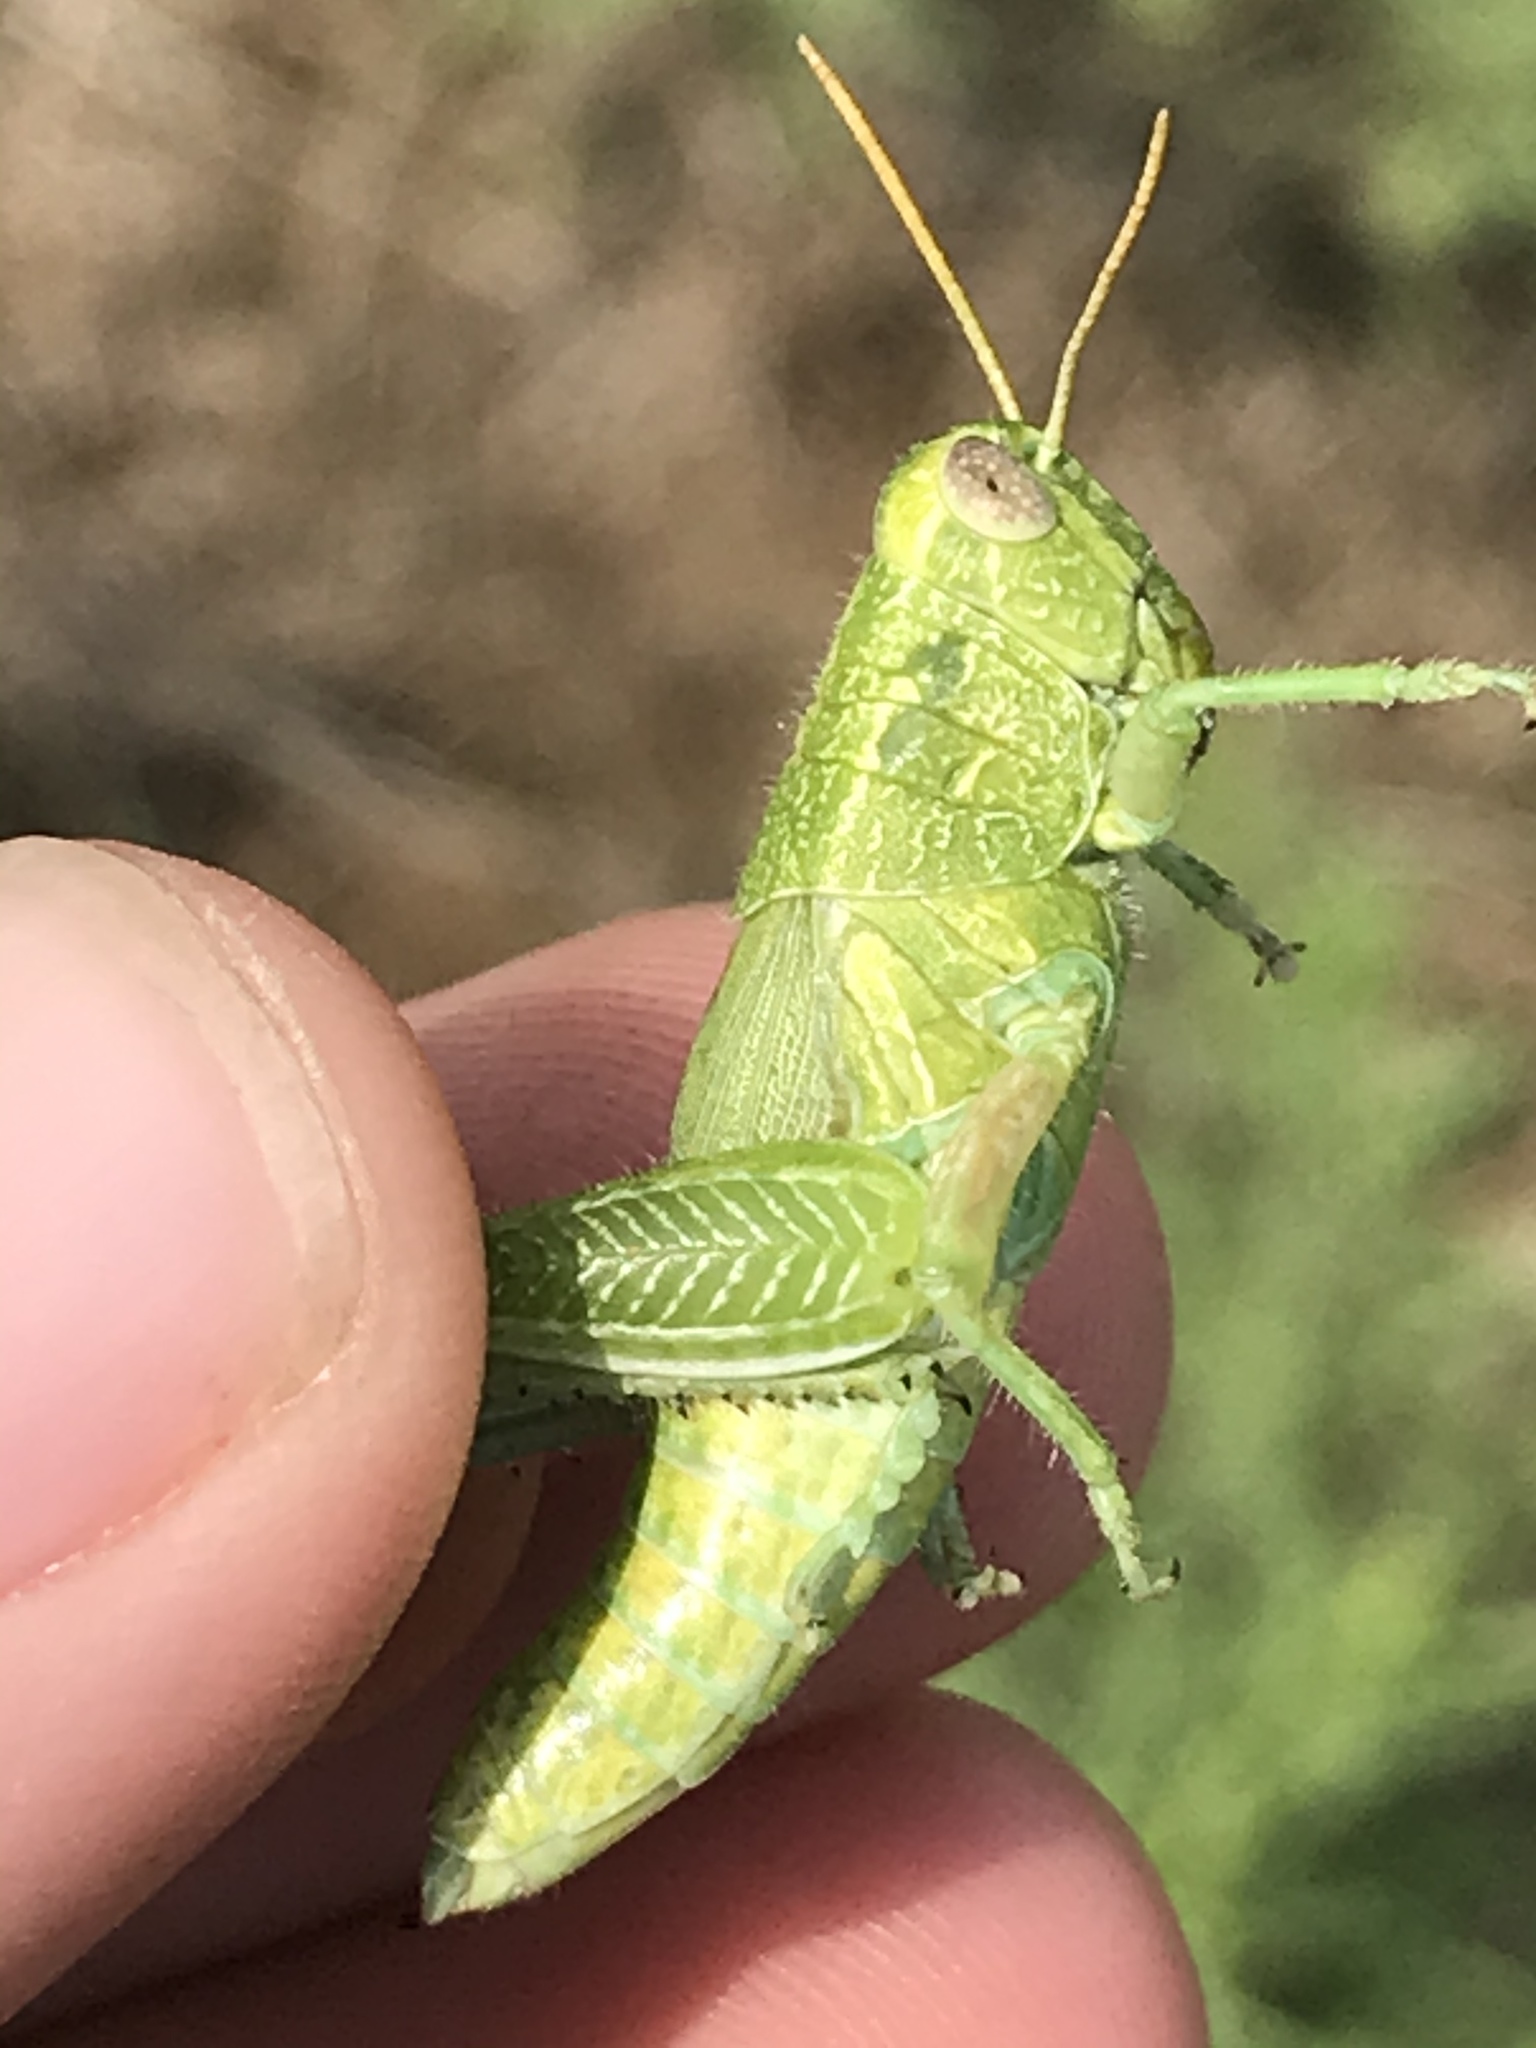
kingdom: Animalia
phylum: Arthropoda
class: Insecta
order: Orthoptera
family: Acrididae
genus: Campylacantha
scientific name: Campylacantha olivacea
